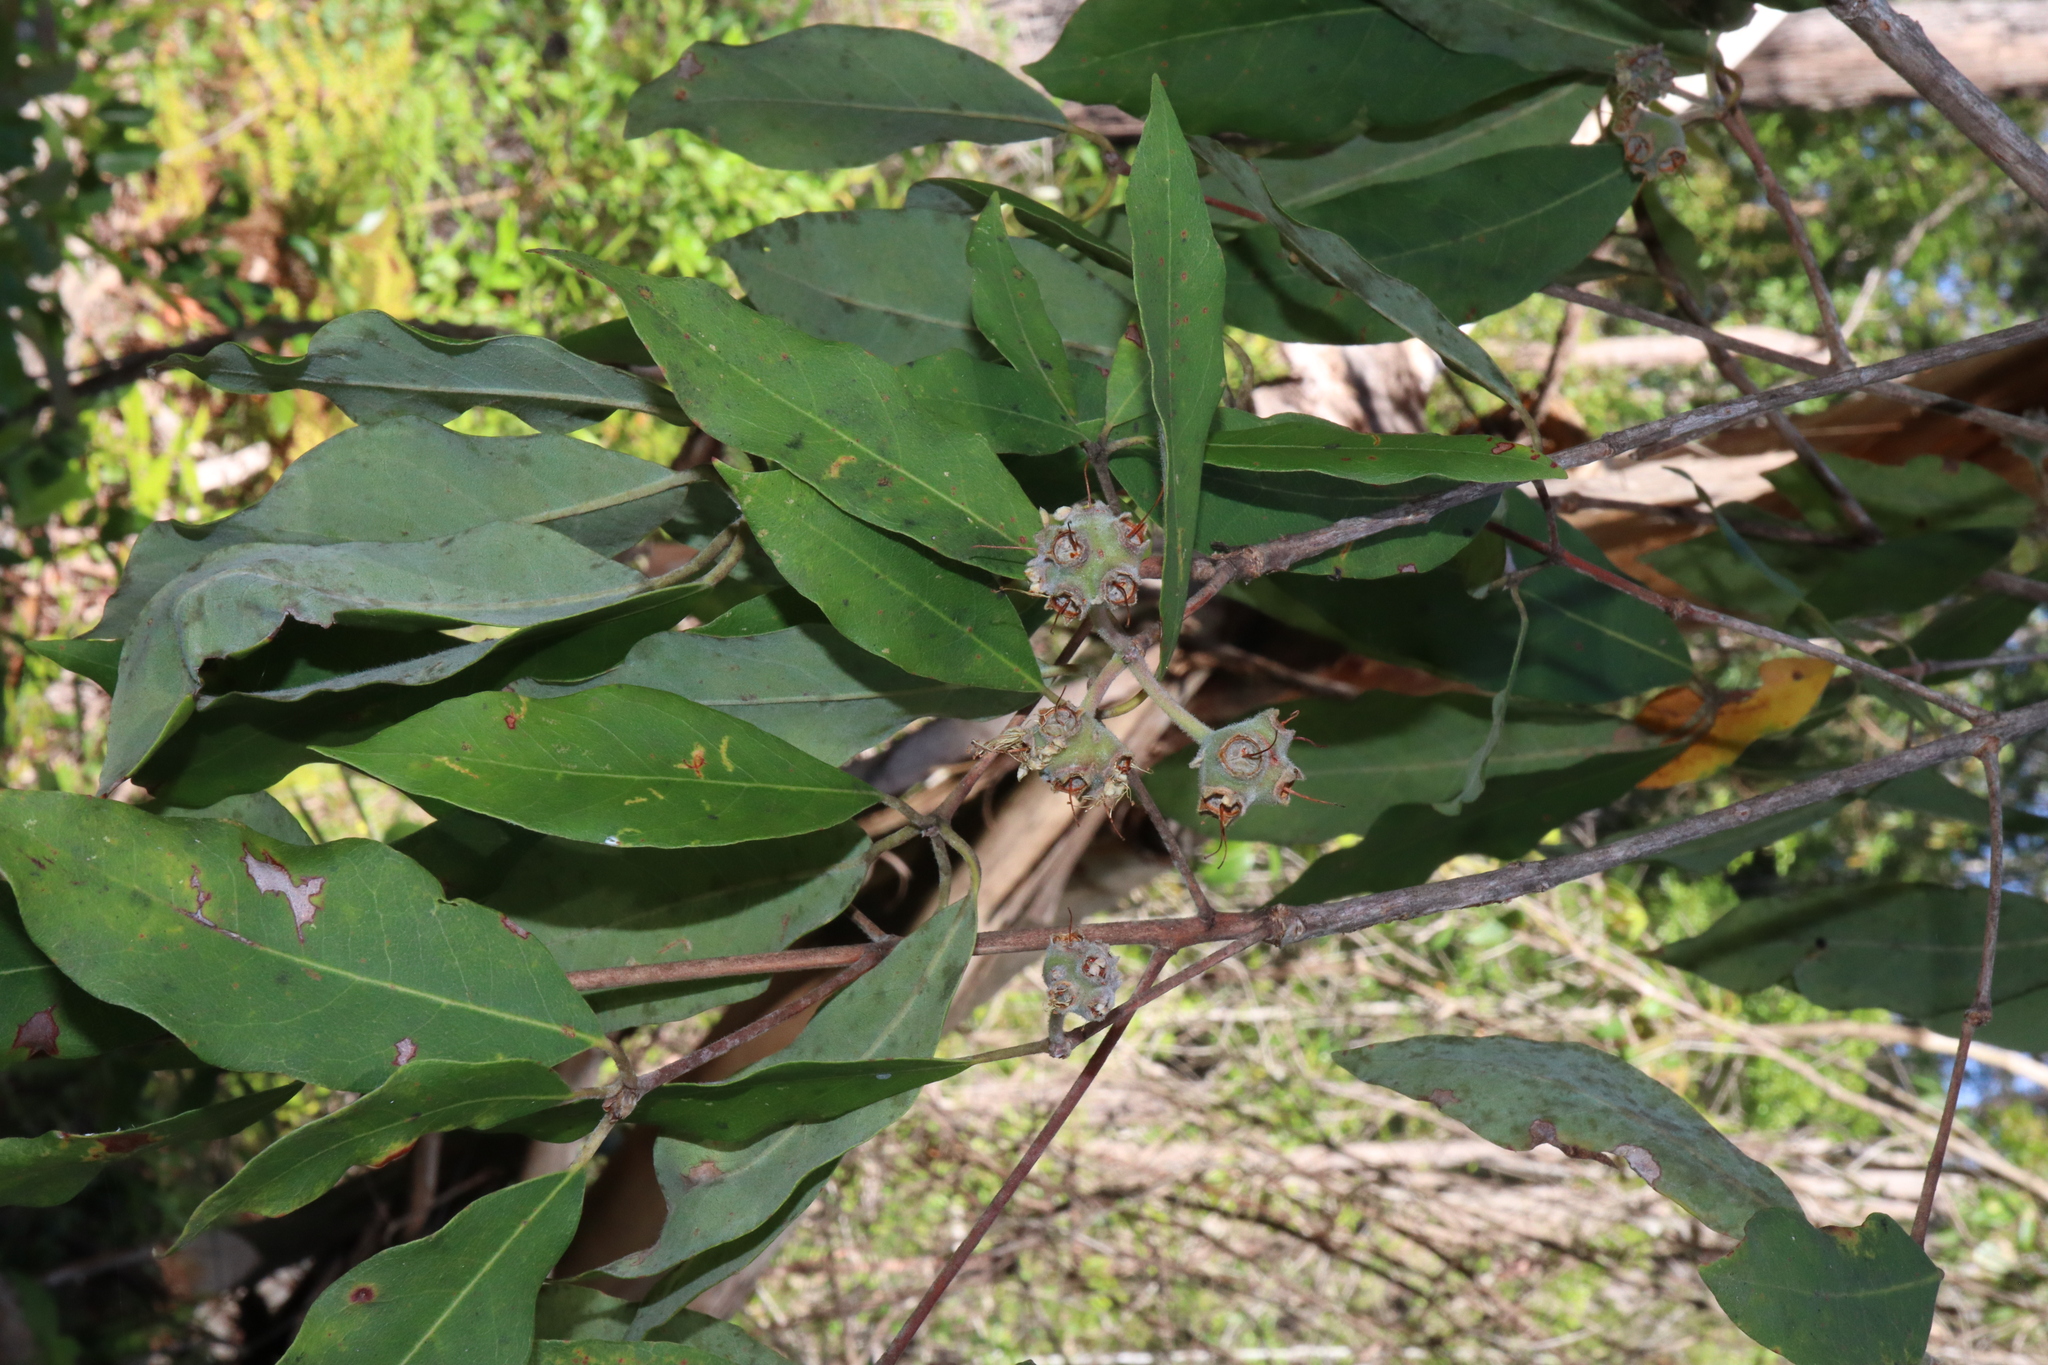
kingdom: Plantae
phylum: Tracheophyta
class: Magnoliopsida
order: Myrtales
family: Myrtaceae
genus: Syncarpia
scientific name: Syncarpia glomulifera
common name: Turpentine tree
